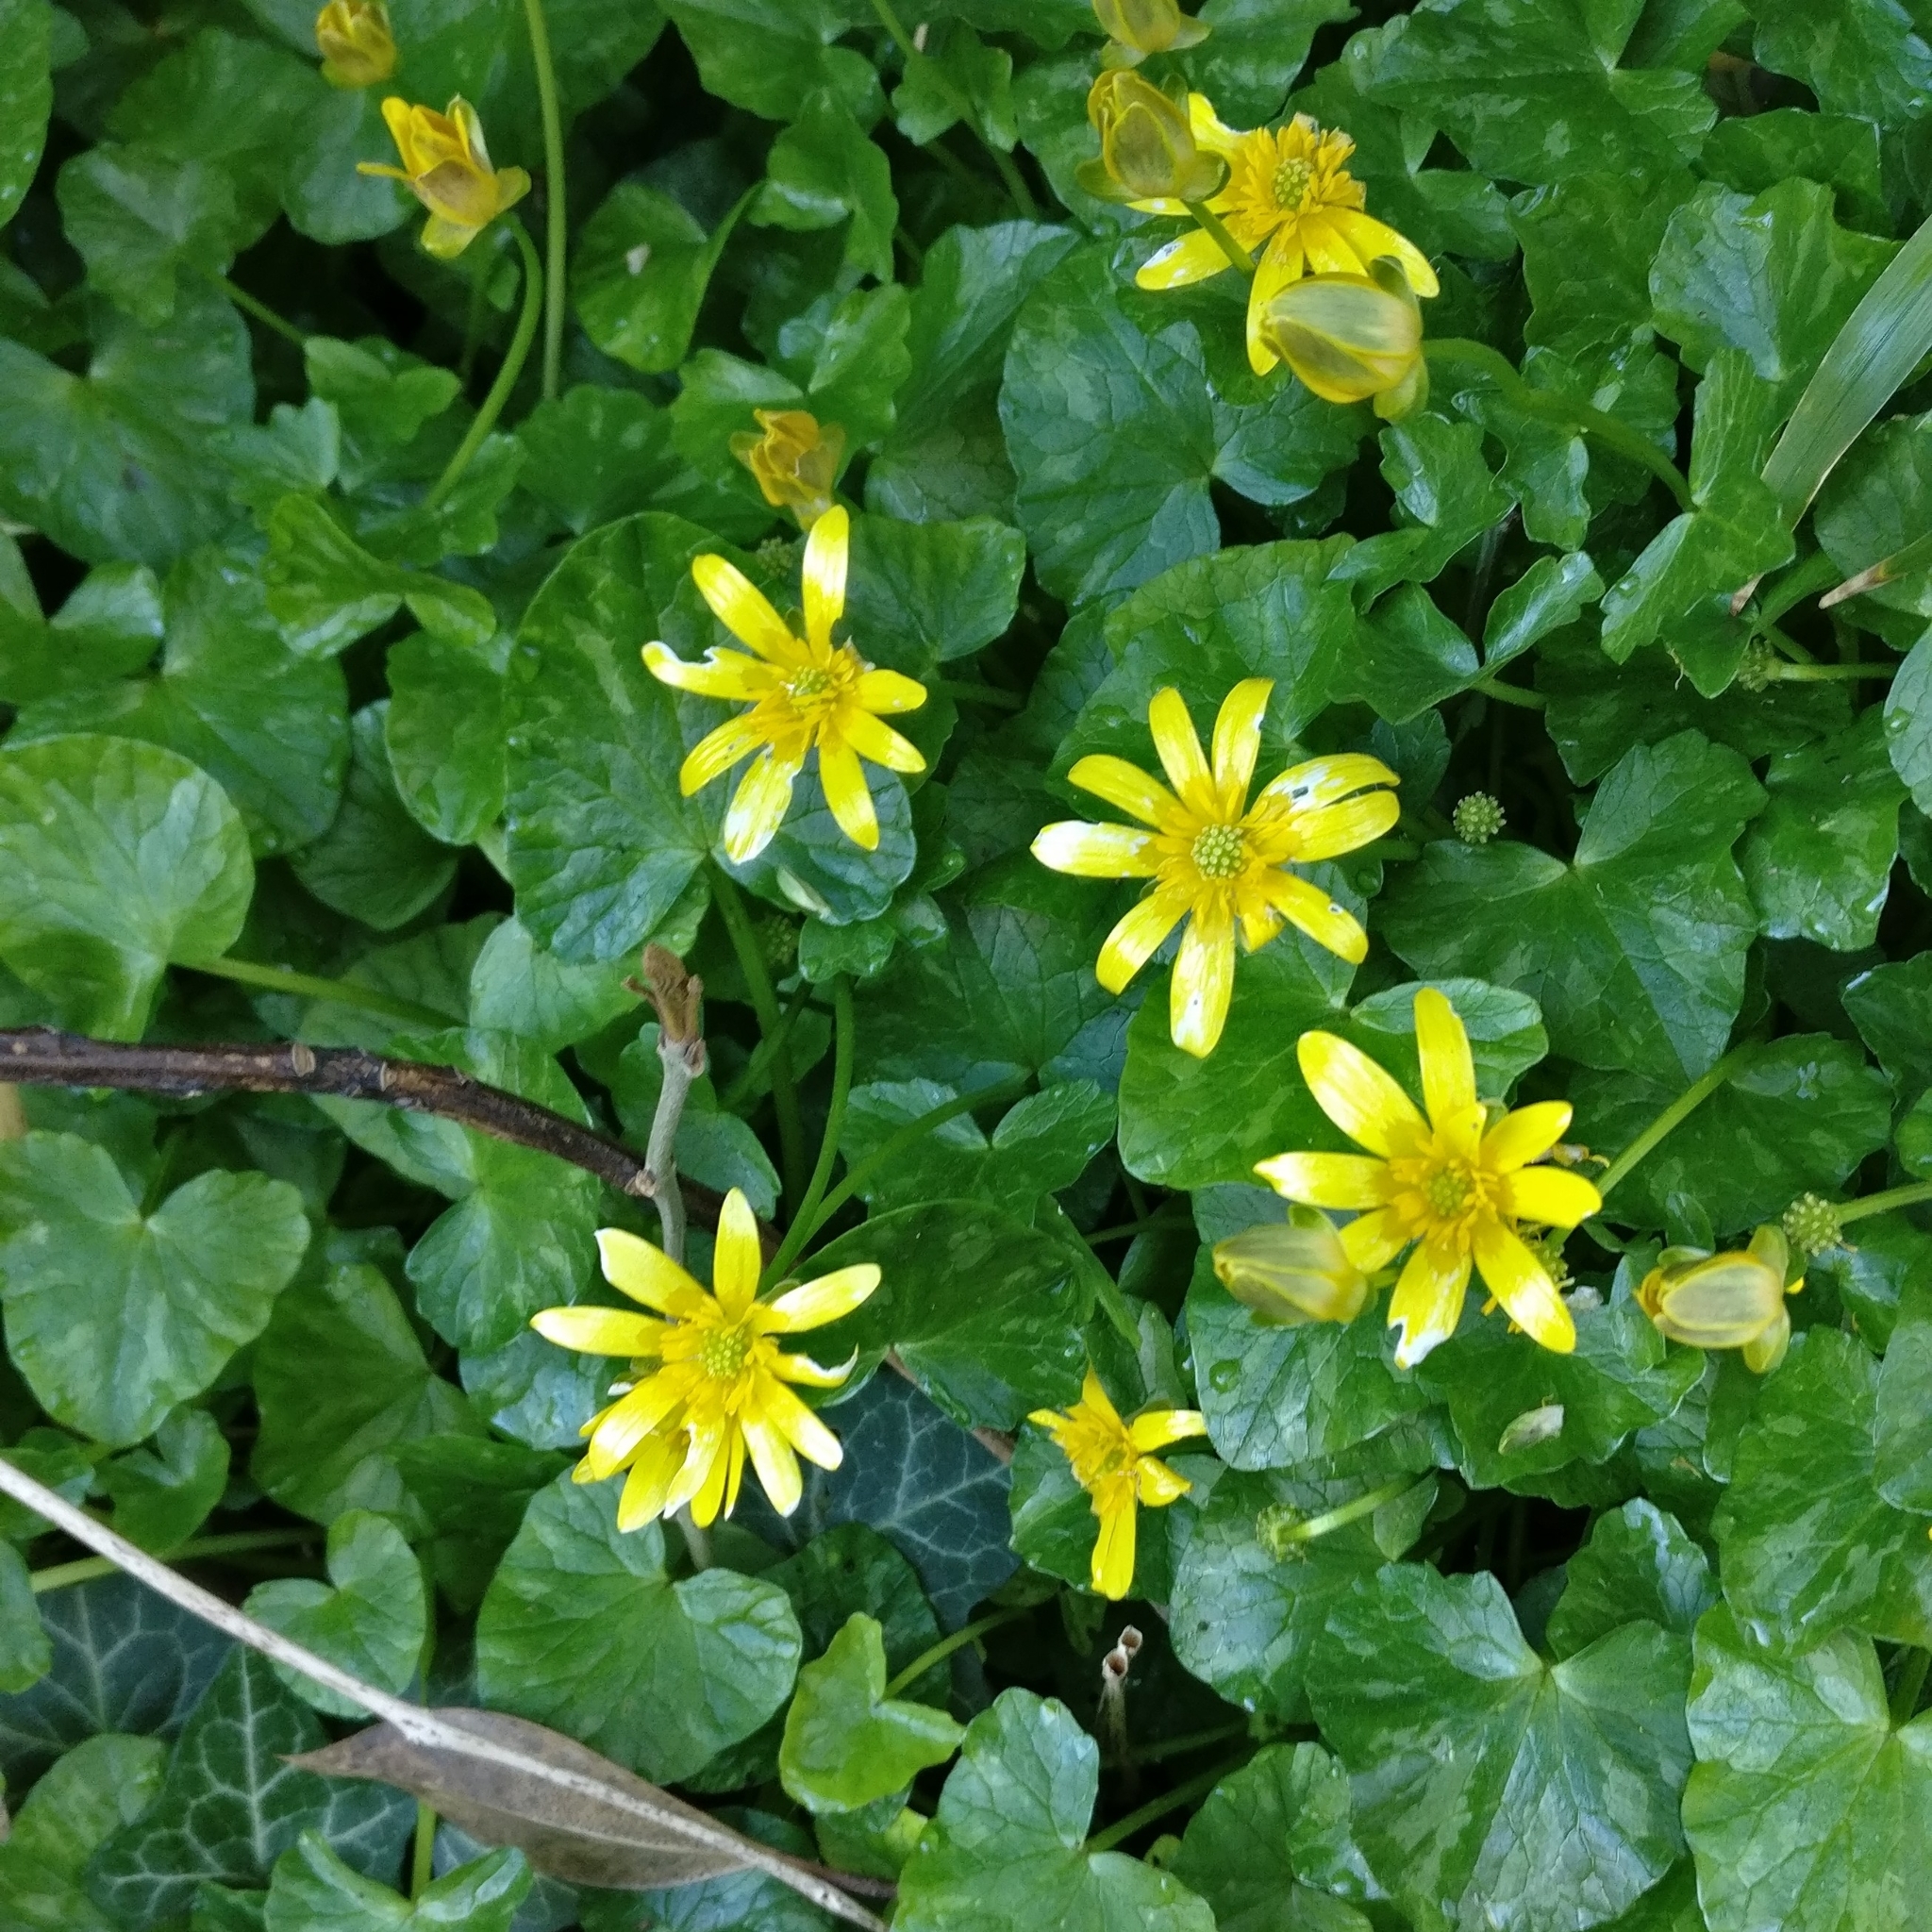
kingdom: Plantae
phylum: Tracheophyta
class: Magnoliopsida
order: Ranunculales
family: Ranunculaceae
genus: Ficaria
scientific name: Ficaria verna
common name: Lesser celandine
